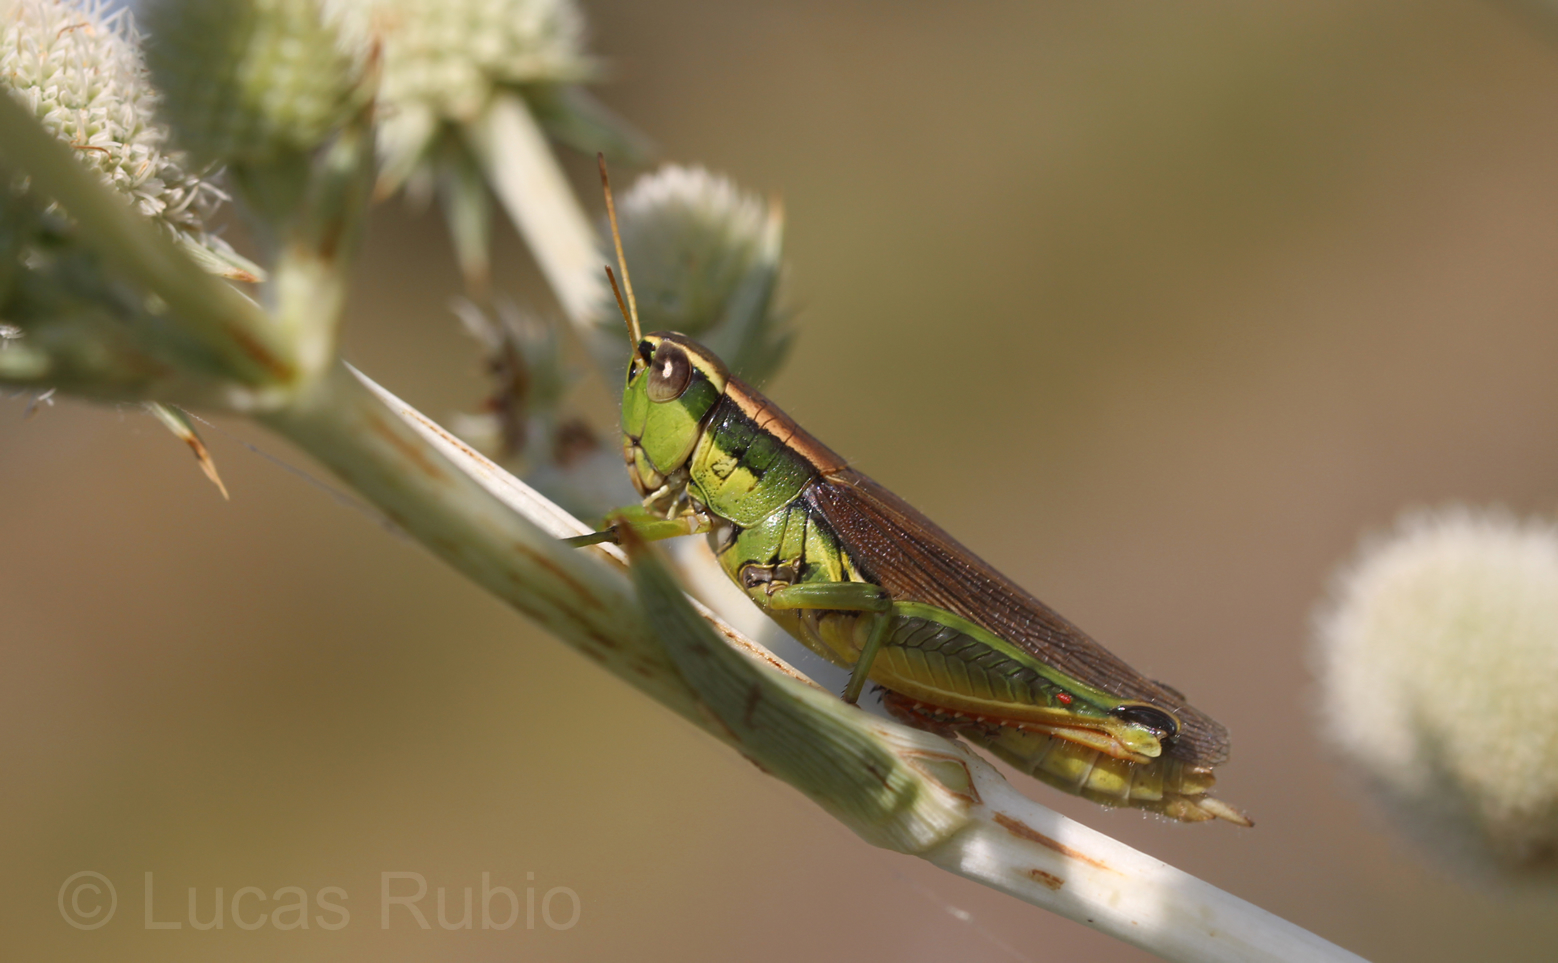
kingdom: Animalia
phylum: Arthropoda
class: Insecta
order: Orthoptera
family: Acrididae
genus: Scotussa
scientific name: Scotussa cliens
